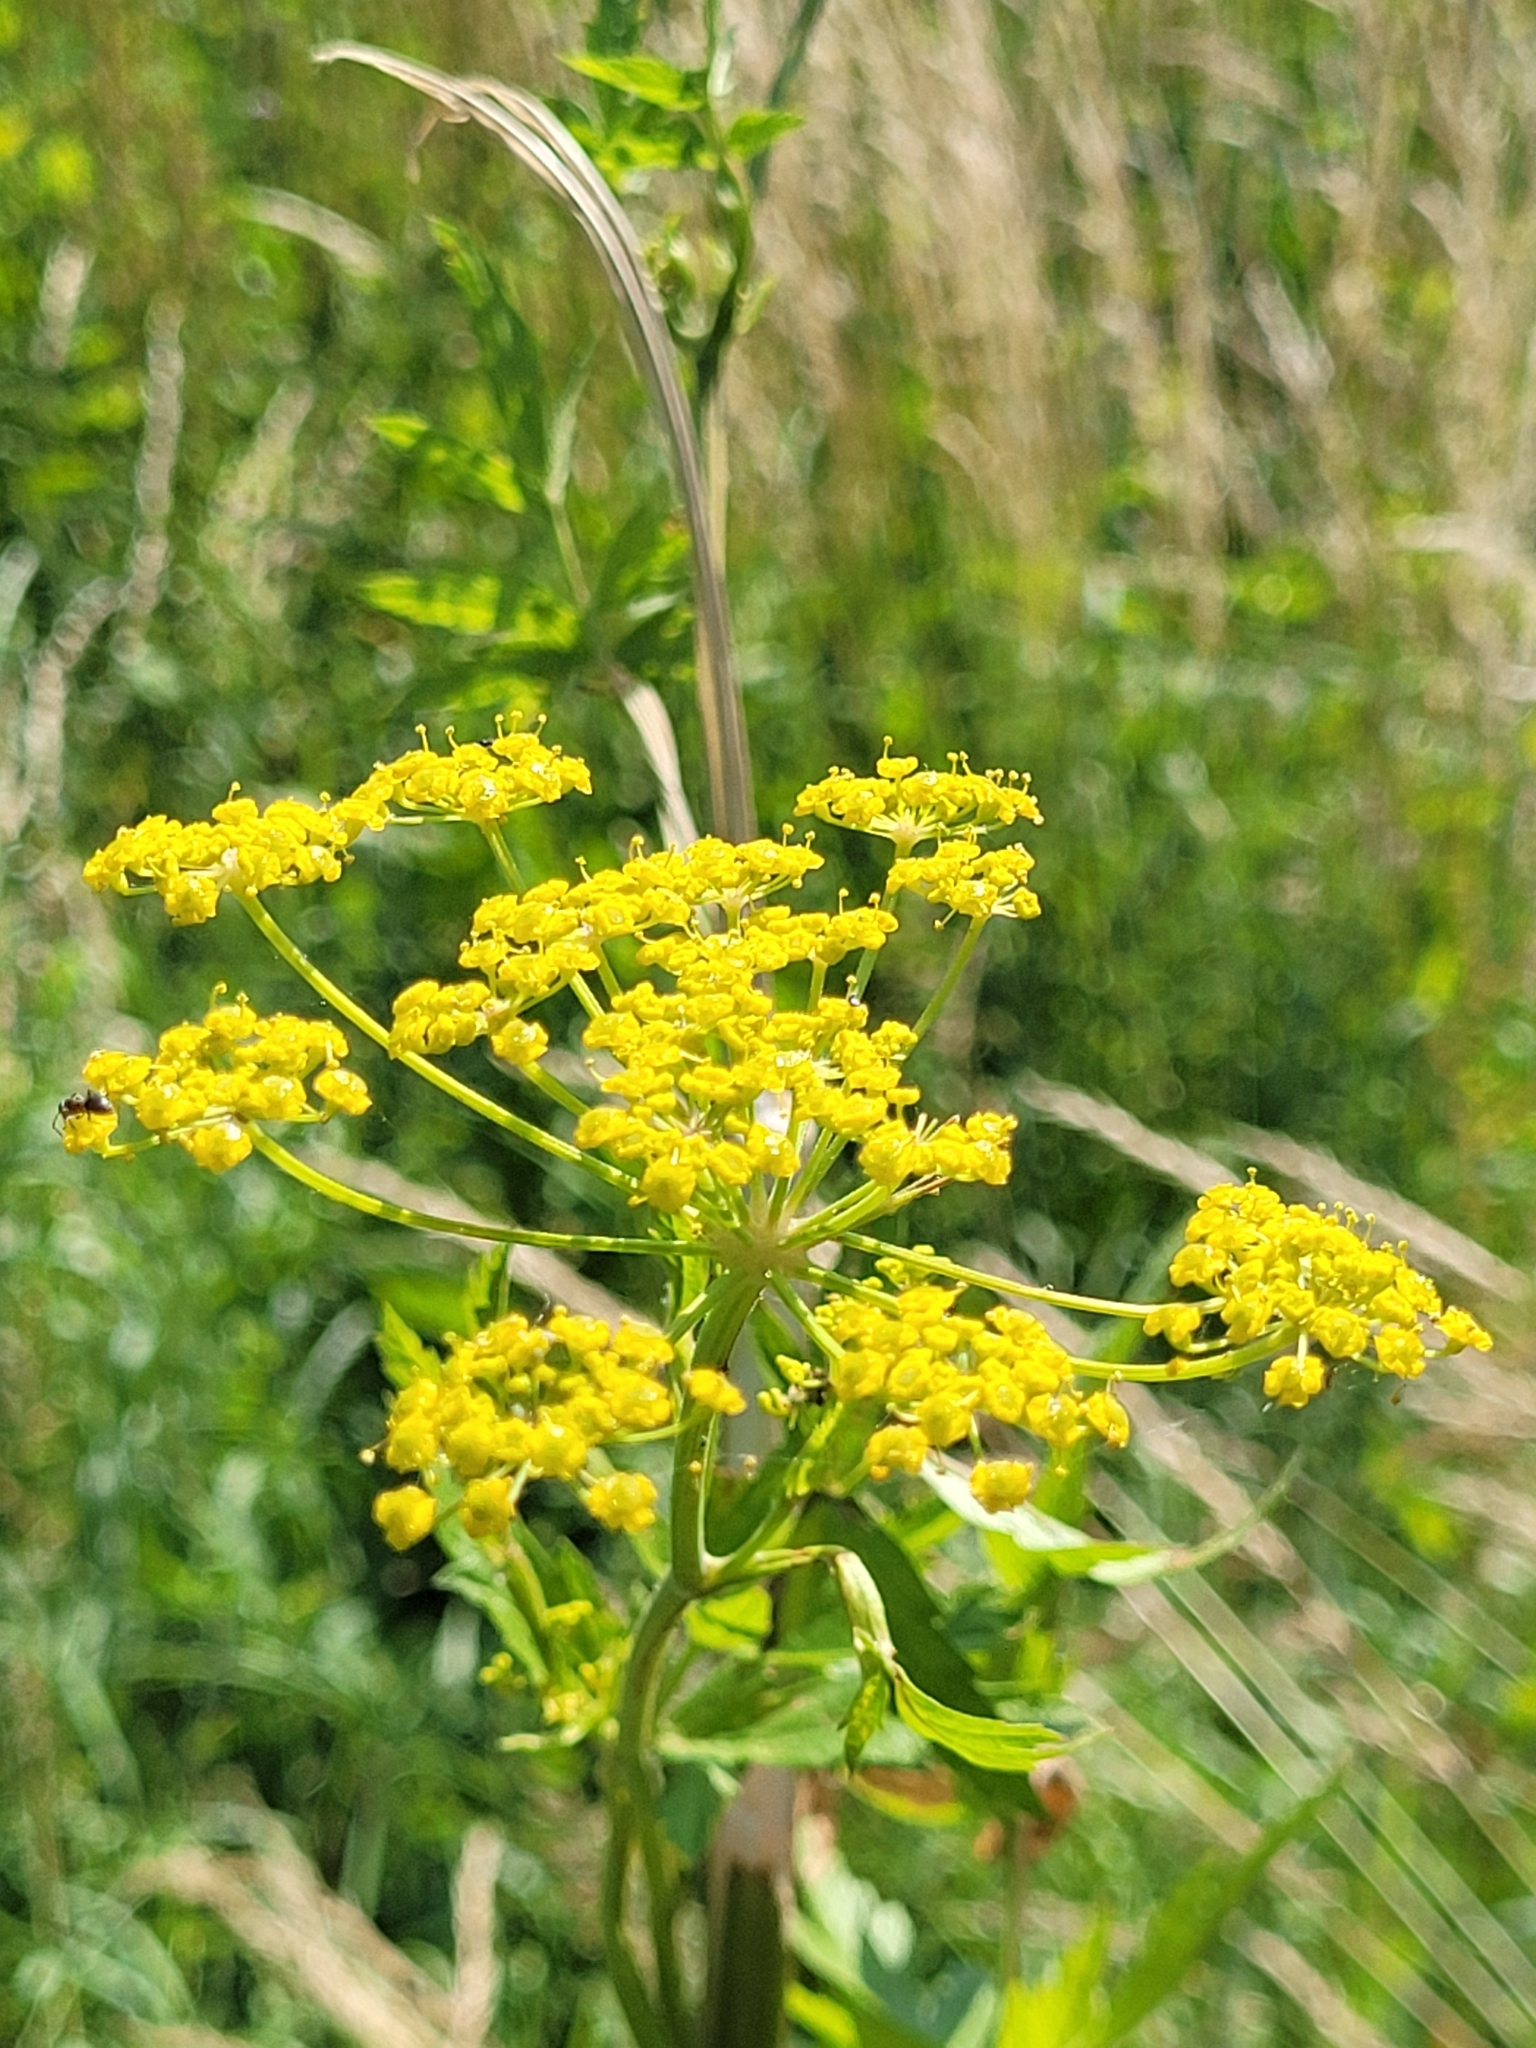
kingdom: Plantae
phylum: Tracheophyta
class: Magnoliopsida
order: Apiales
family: Apiaceae
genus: Pastinaca
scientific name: Pastinaca sativa
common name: Wild parsnip
